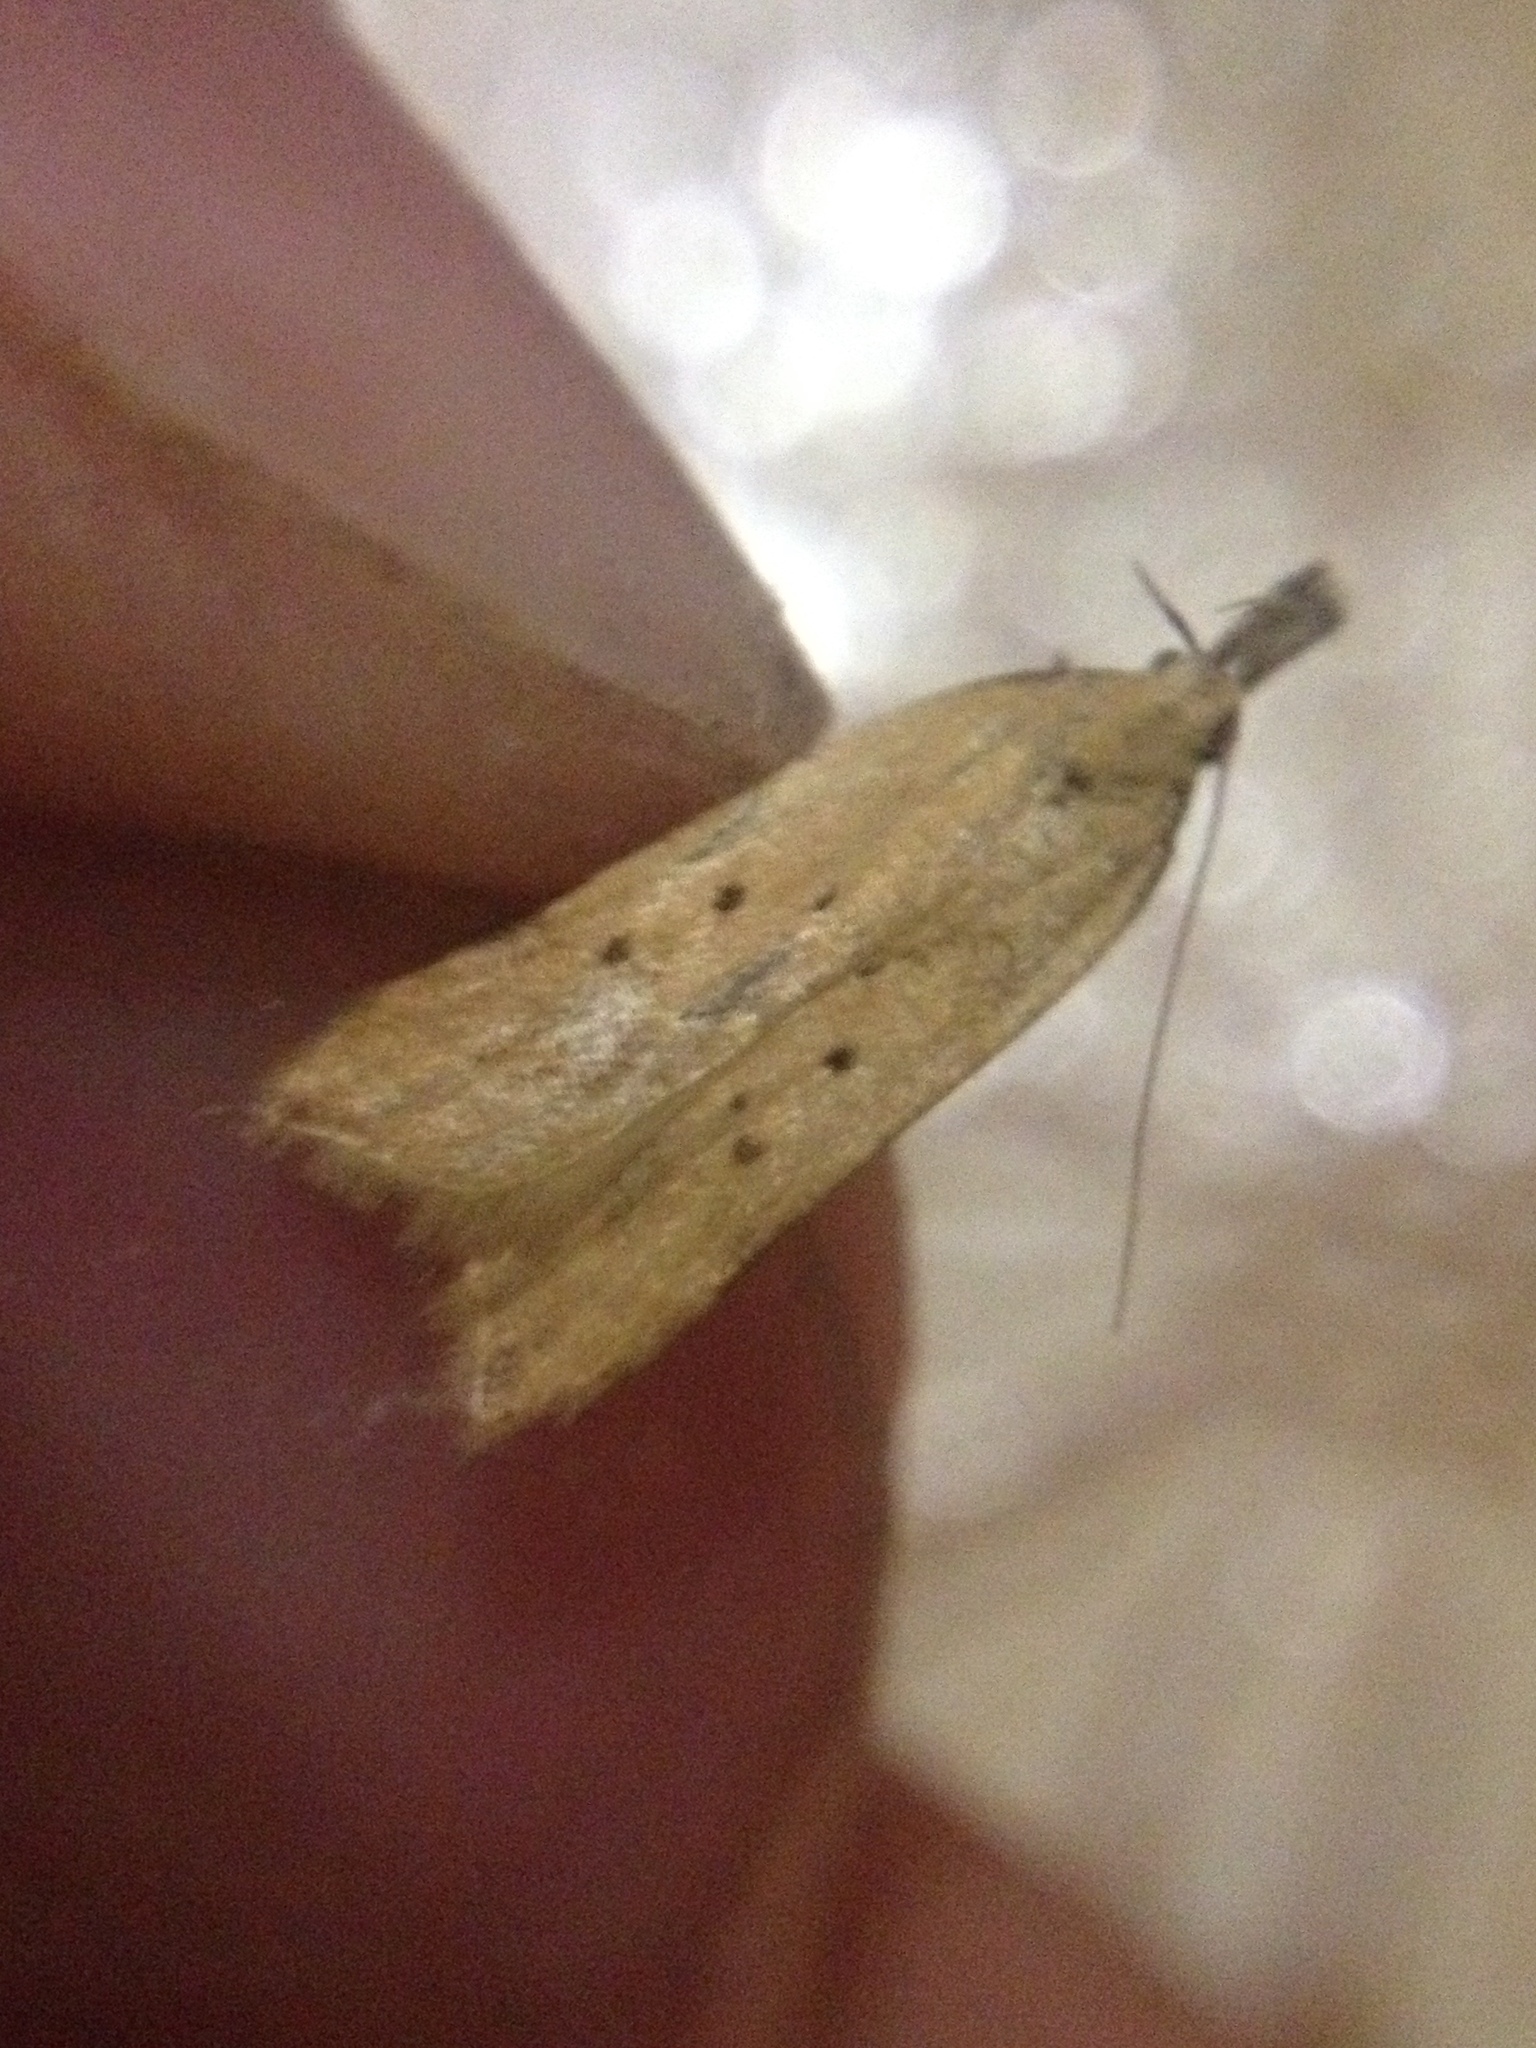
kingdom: Animalia
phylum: Arthropoda
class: Insecta
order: Lepidoptera
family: Gelechiidae
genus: Dichomeris
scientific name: Dichomeris limosellus
